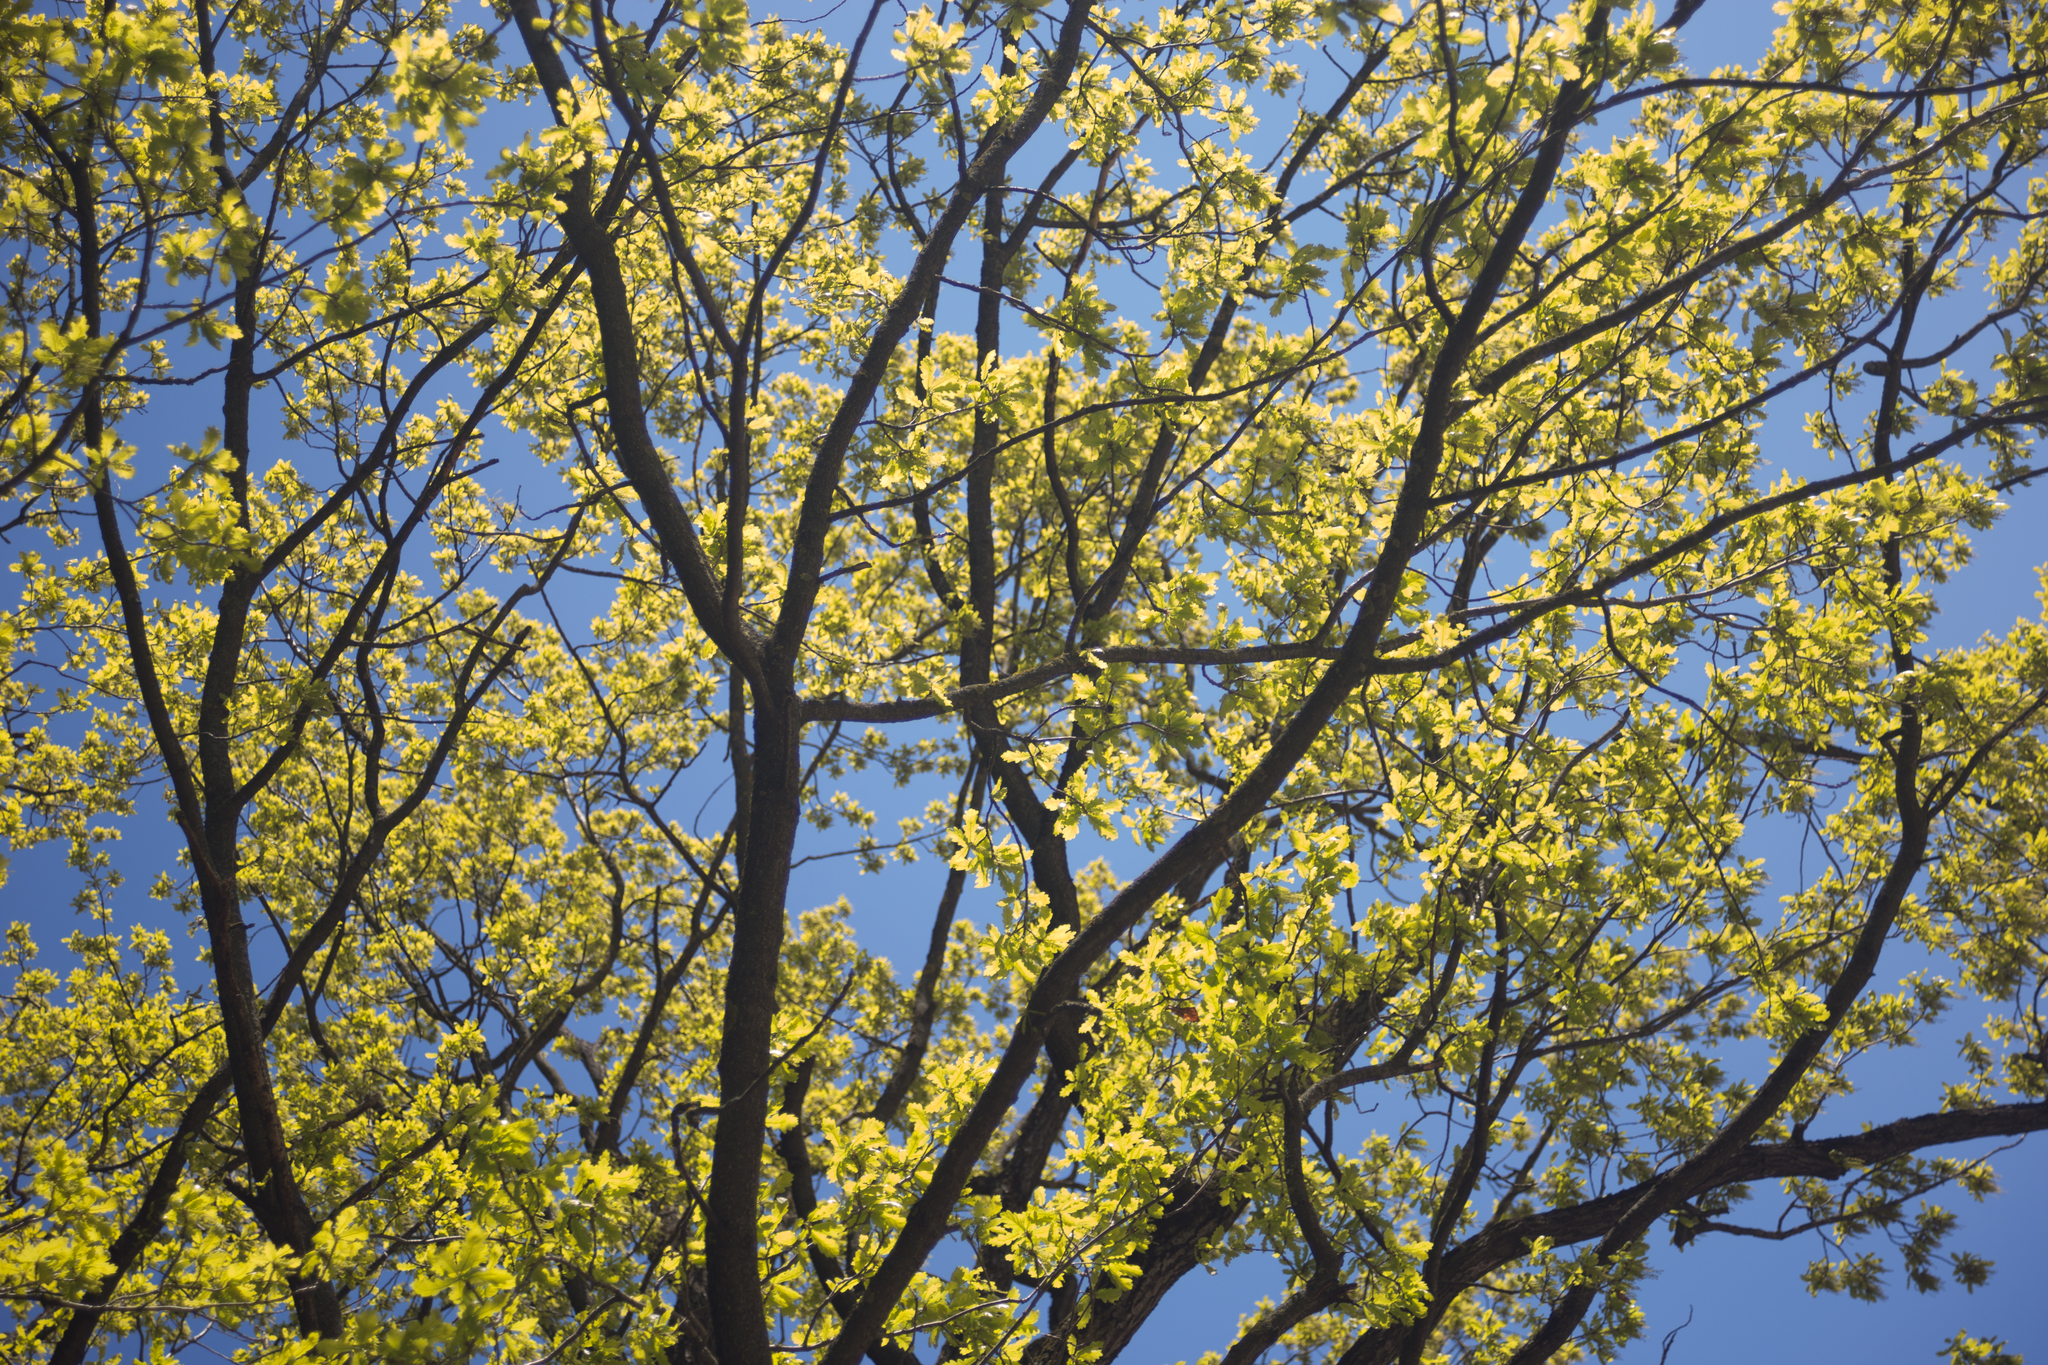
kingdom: Plantae
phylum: Tracheophyta
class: Magnoliopsida
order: Fagales
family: Fagaceae
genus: Quercus
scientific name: Quercus robur
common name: Pedunculate oak
